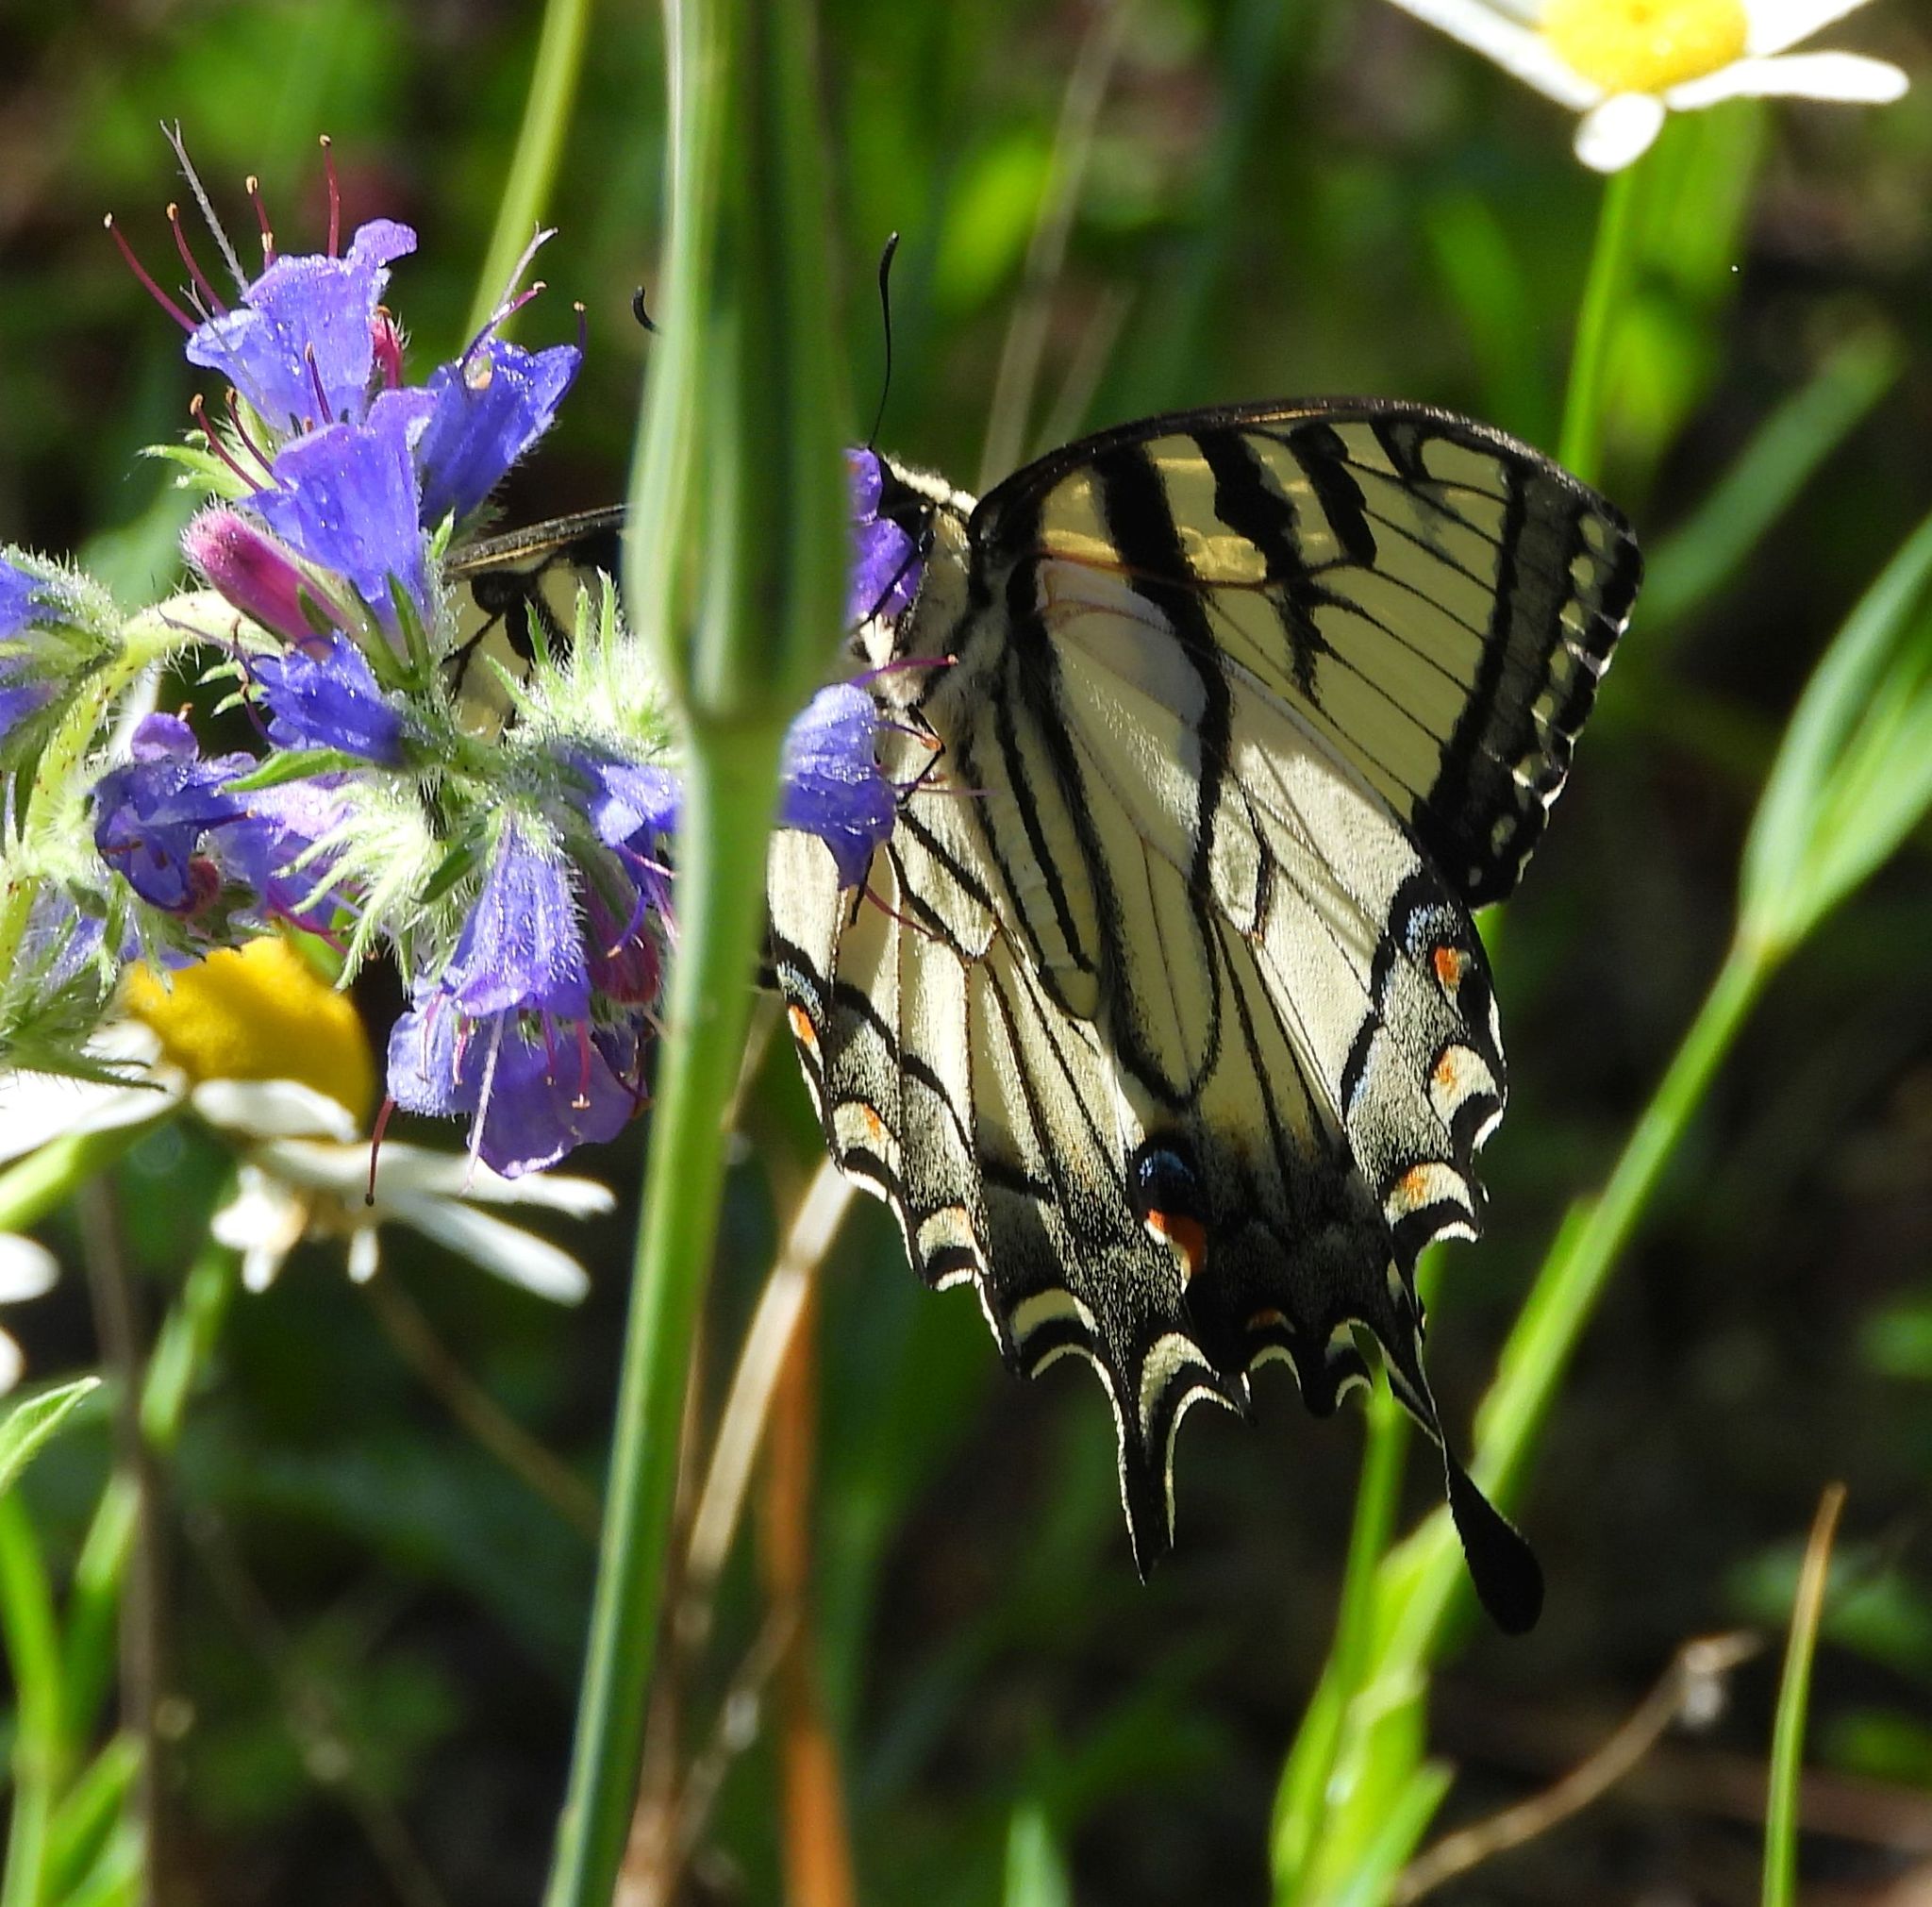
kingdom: Animalia
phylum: Arthropoda
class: Insecta
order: Lepidoptera
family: Papilionidae
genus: Papilio
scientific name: Papilio
